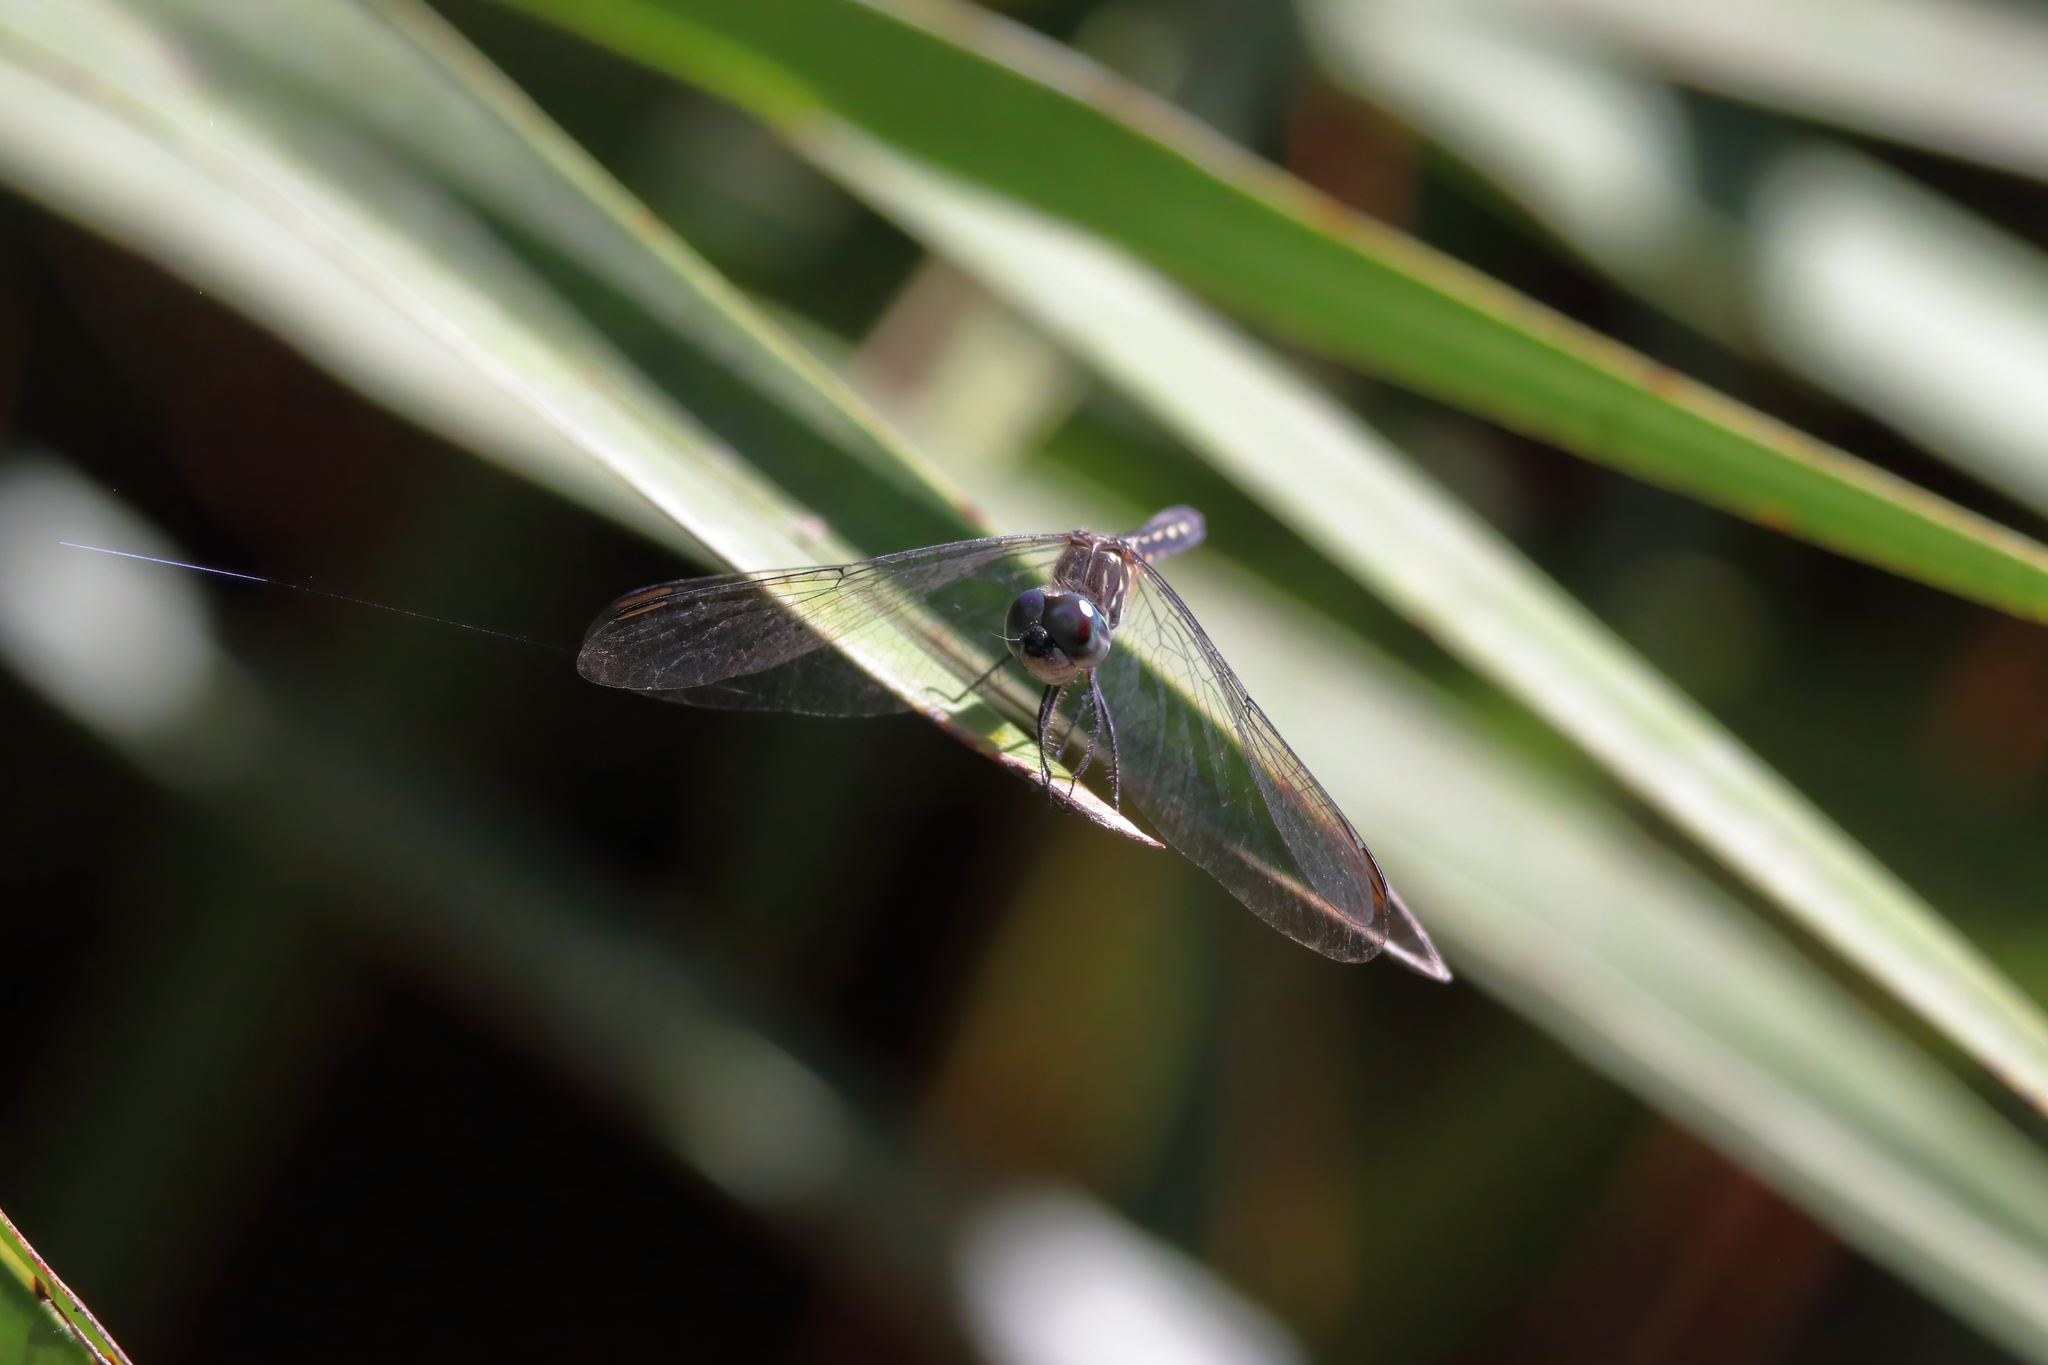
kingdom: Animalia
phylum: Arthropoda
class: Insecta
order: Odonata
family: Libellulidae
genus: Pachydiplax
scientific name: Pachydiplax longipennis
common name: Blue dasher
